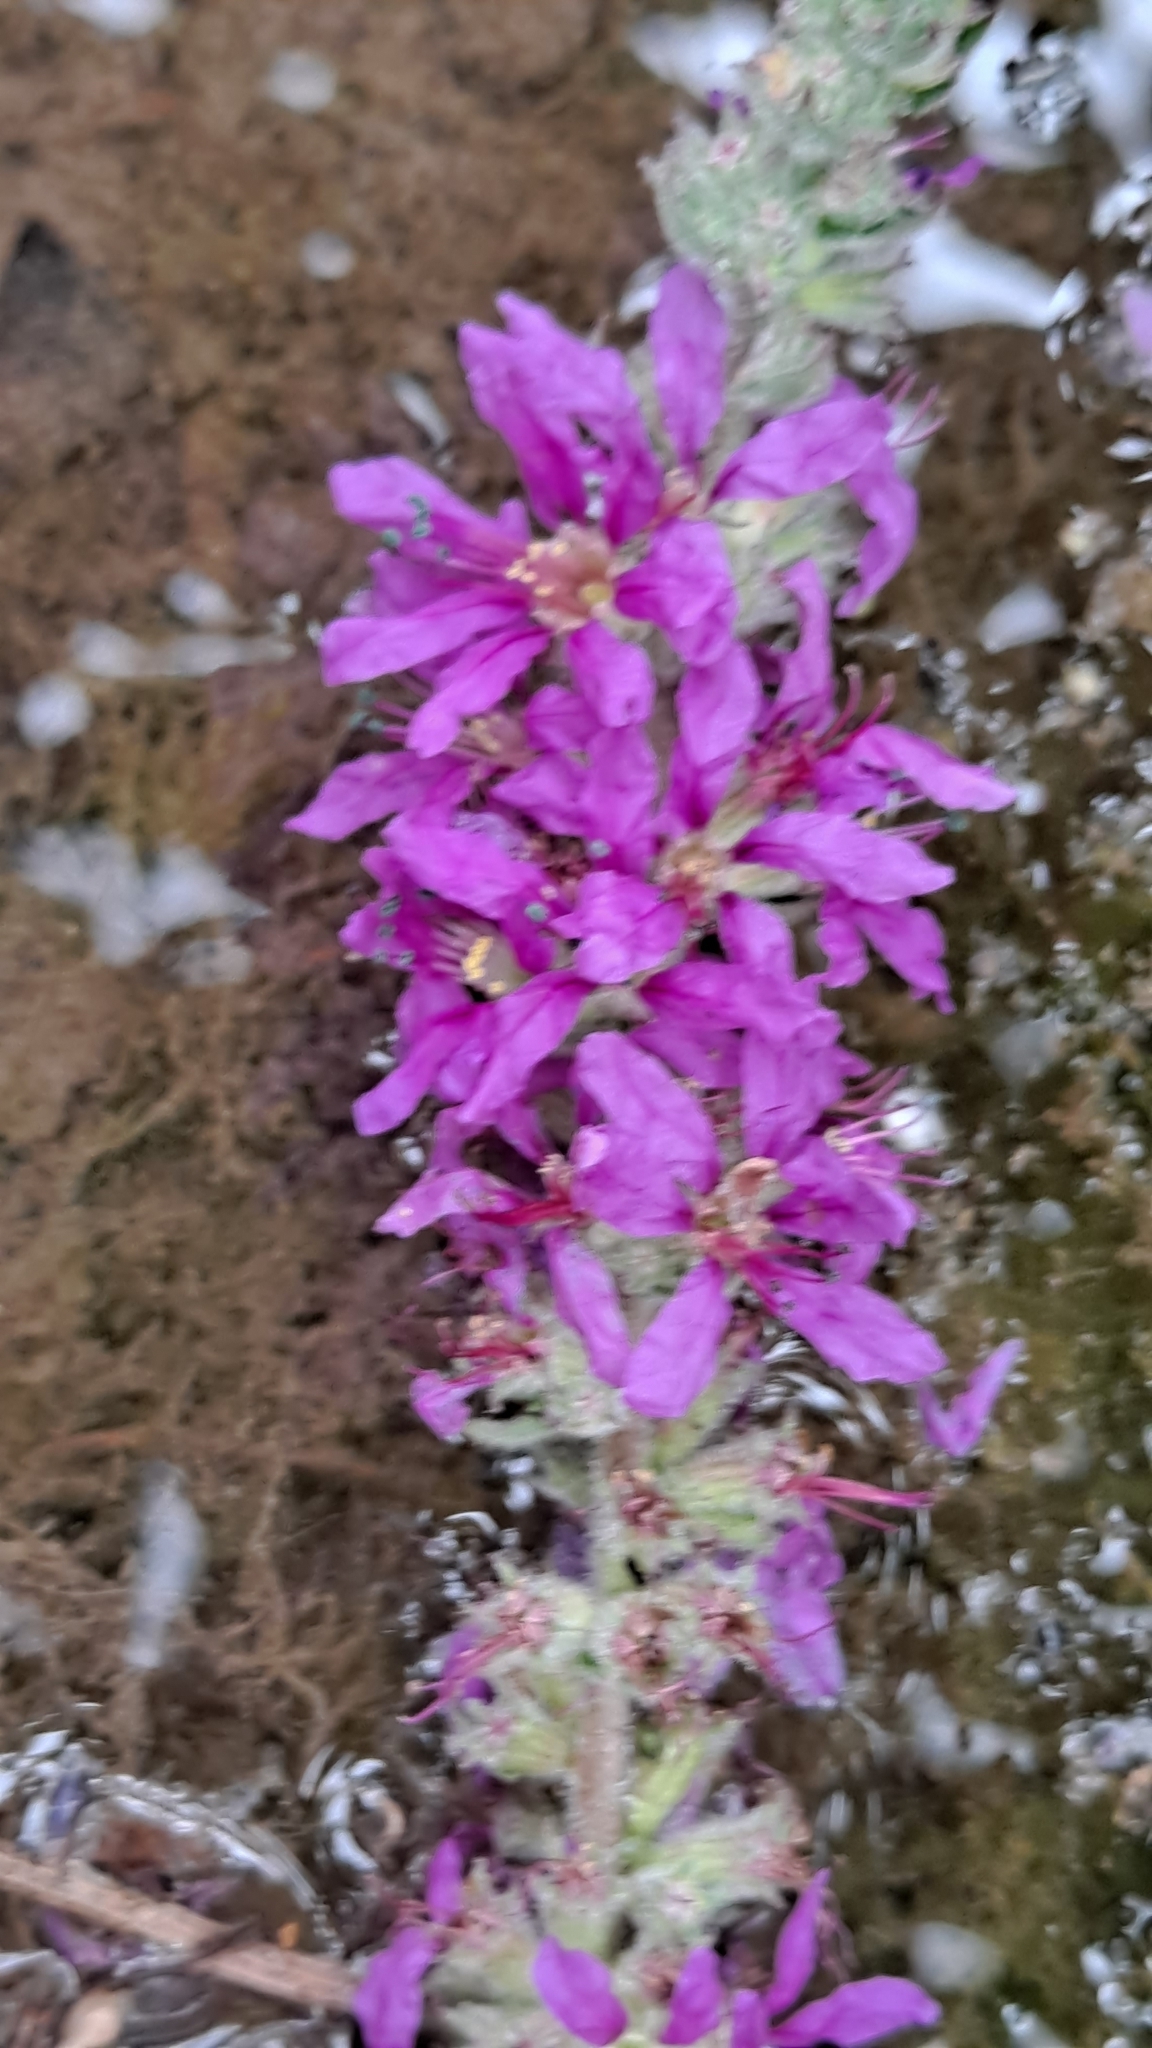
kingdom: Plantae
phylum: Tracheophyta
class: Magnoliopsida
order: Myrtales
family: Lythraceae
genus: Lythrum
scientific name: Lythrum salicaria
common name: Purple loosestrife
